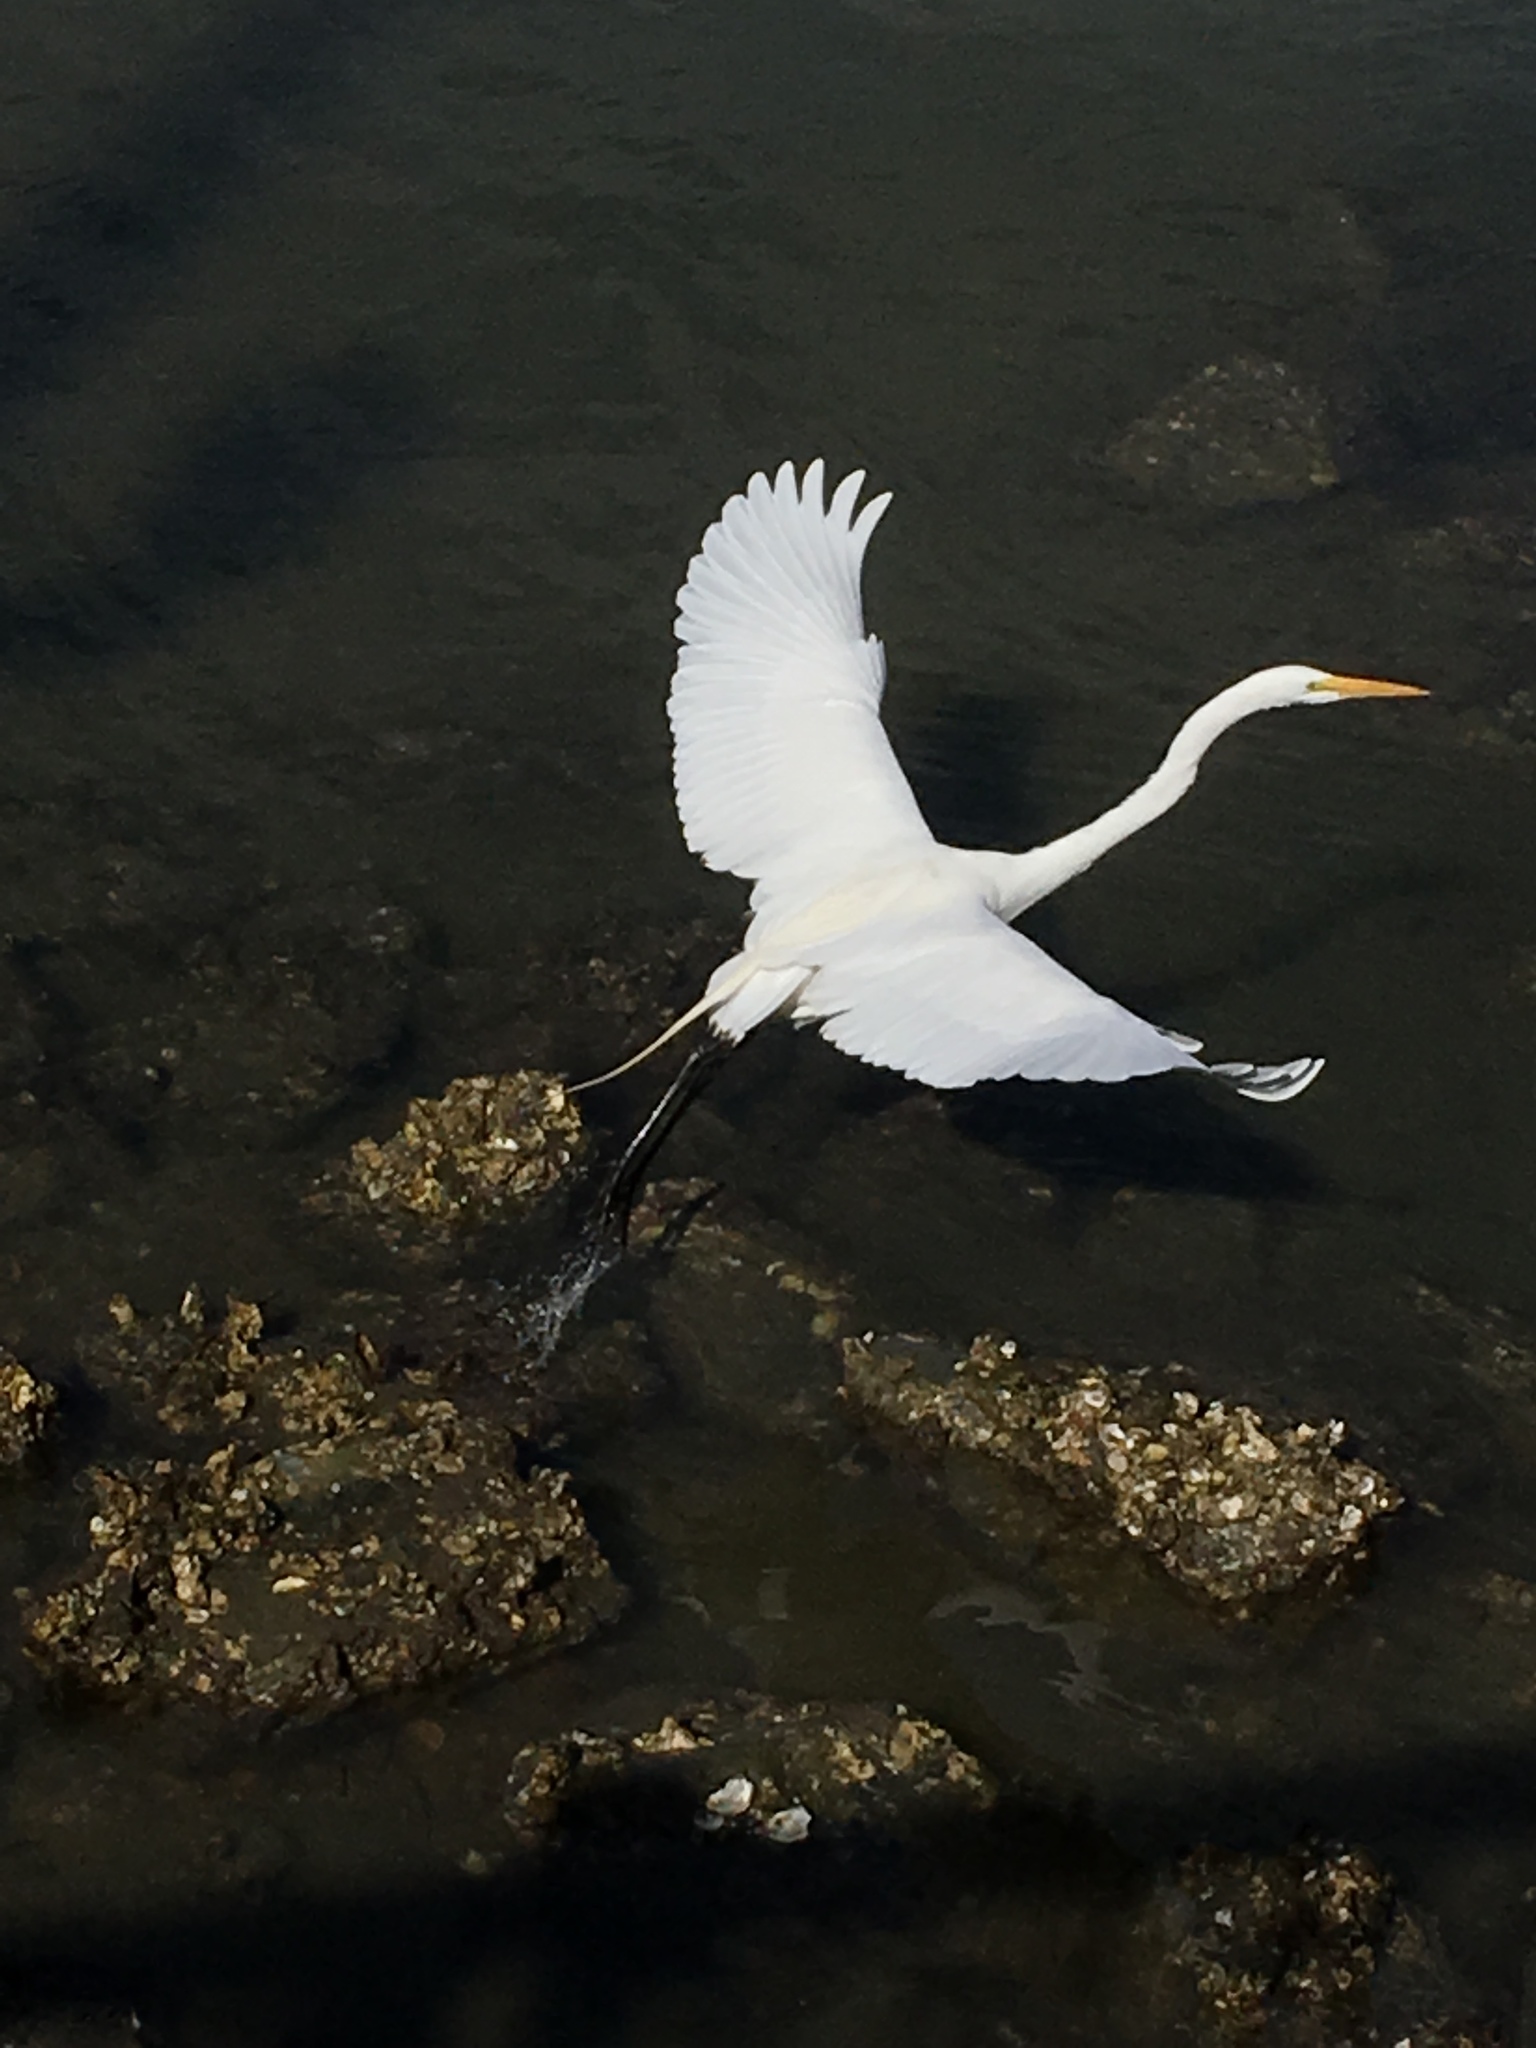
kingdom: Animalia
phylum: Chordata
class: Aves
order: Pelecaniformes
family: Ardeidae
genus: Ardea
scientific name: Ardea alba
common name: Great egret
